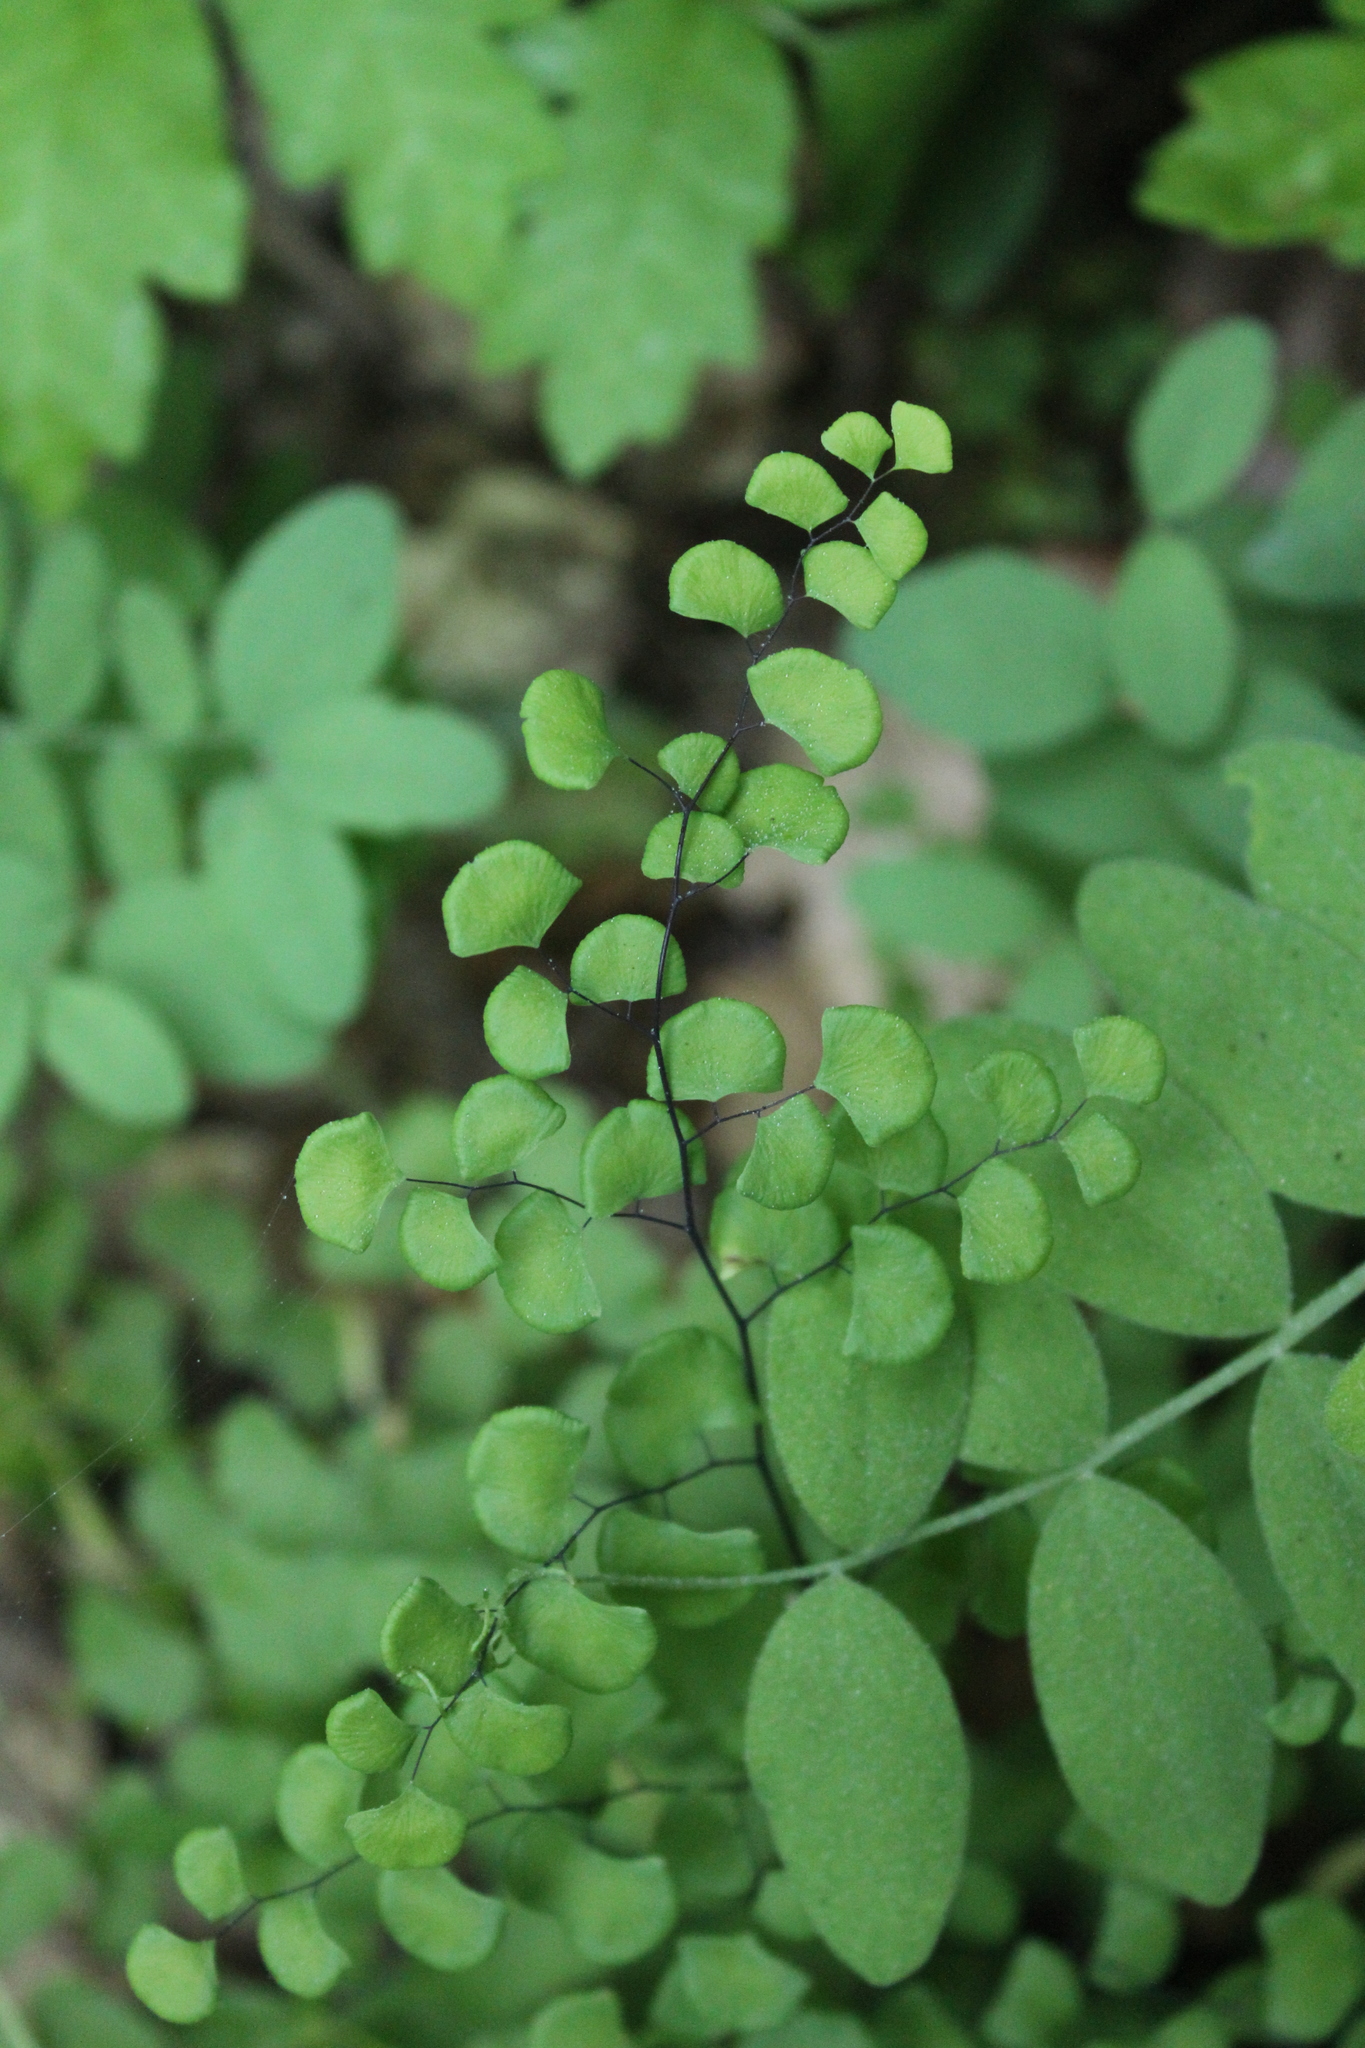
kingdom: Plantae
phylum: Tracheophyta
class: Polypodiopsida
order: Polypodiales
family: Pteridaceae
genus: Adiantum
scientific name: Adiantum jordanii
